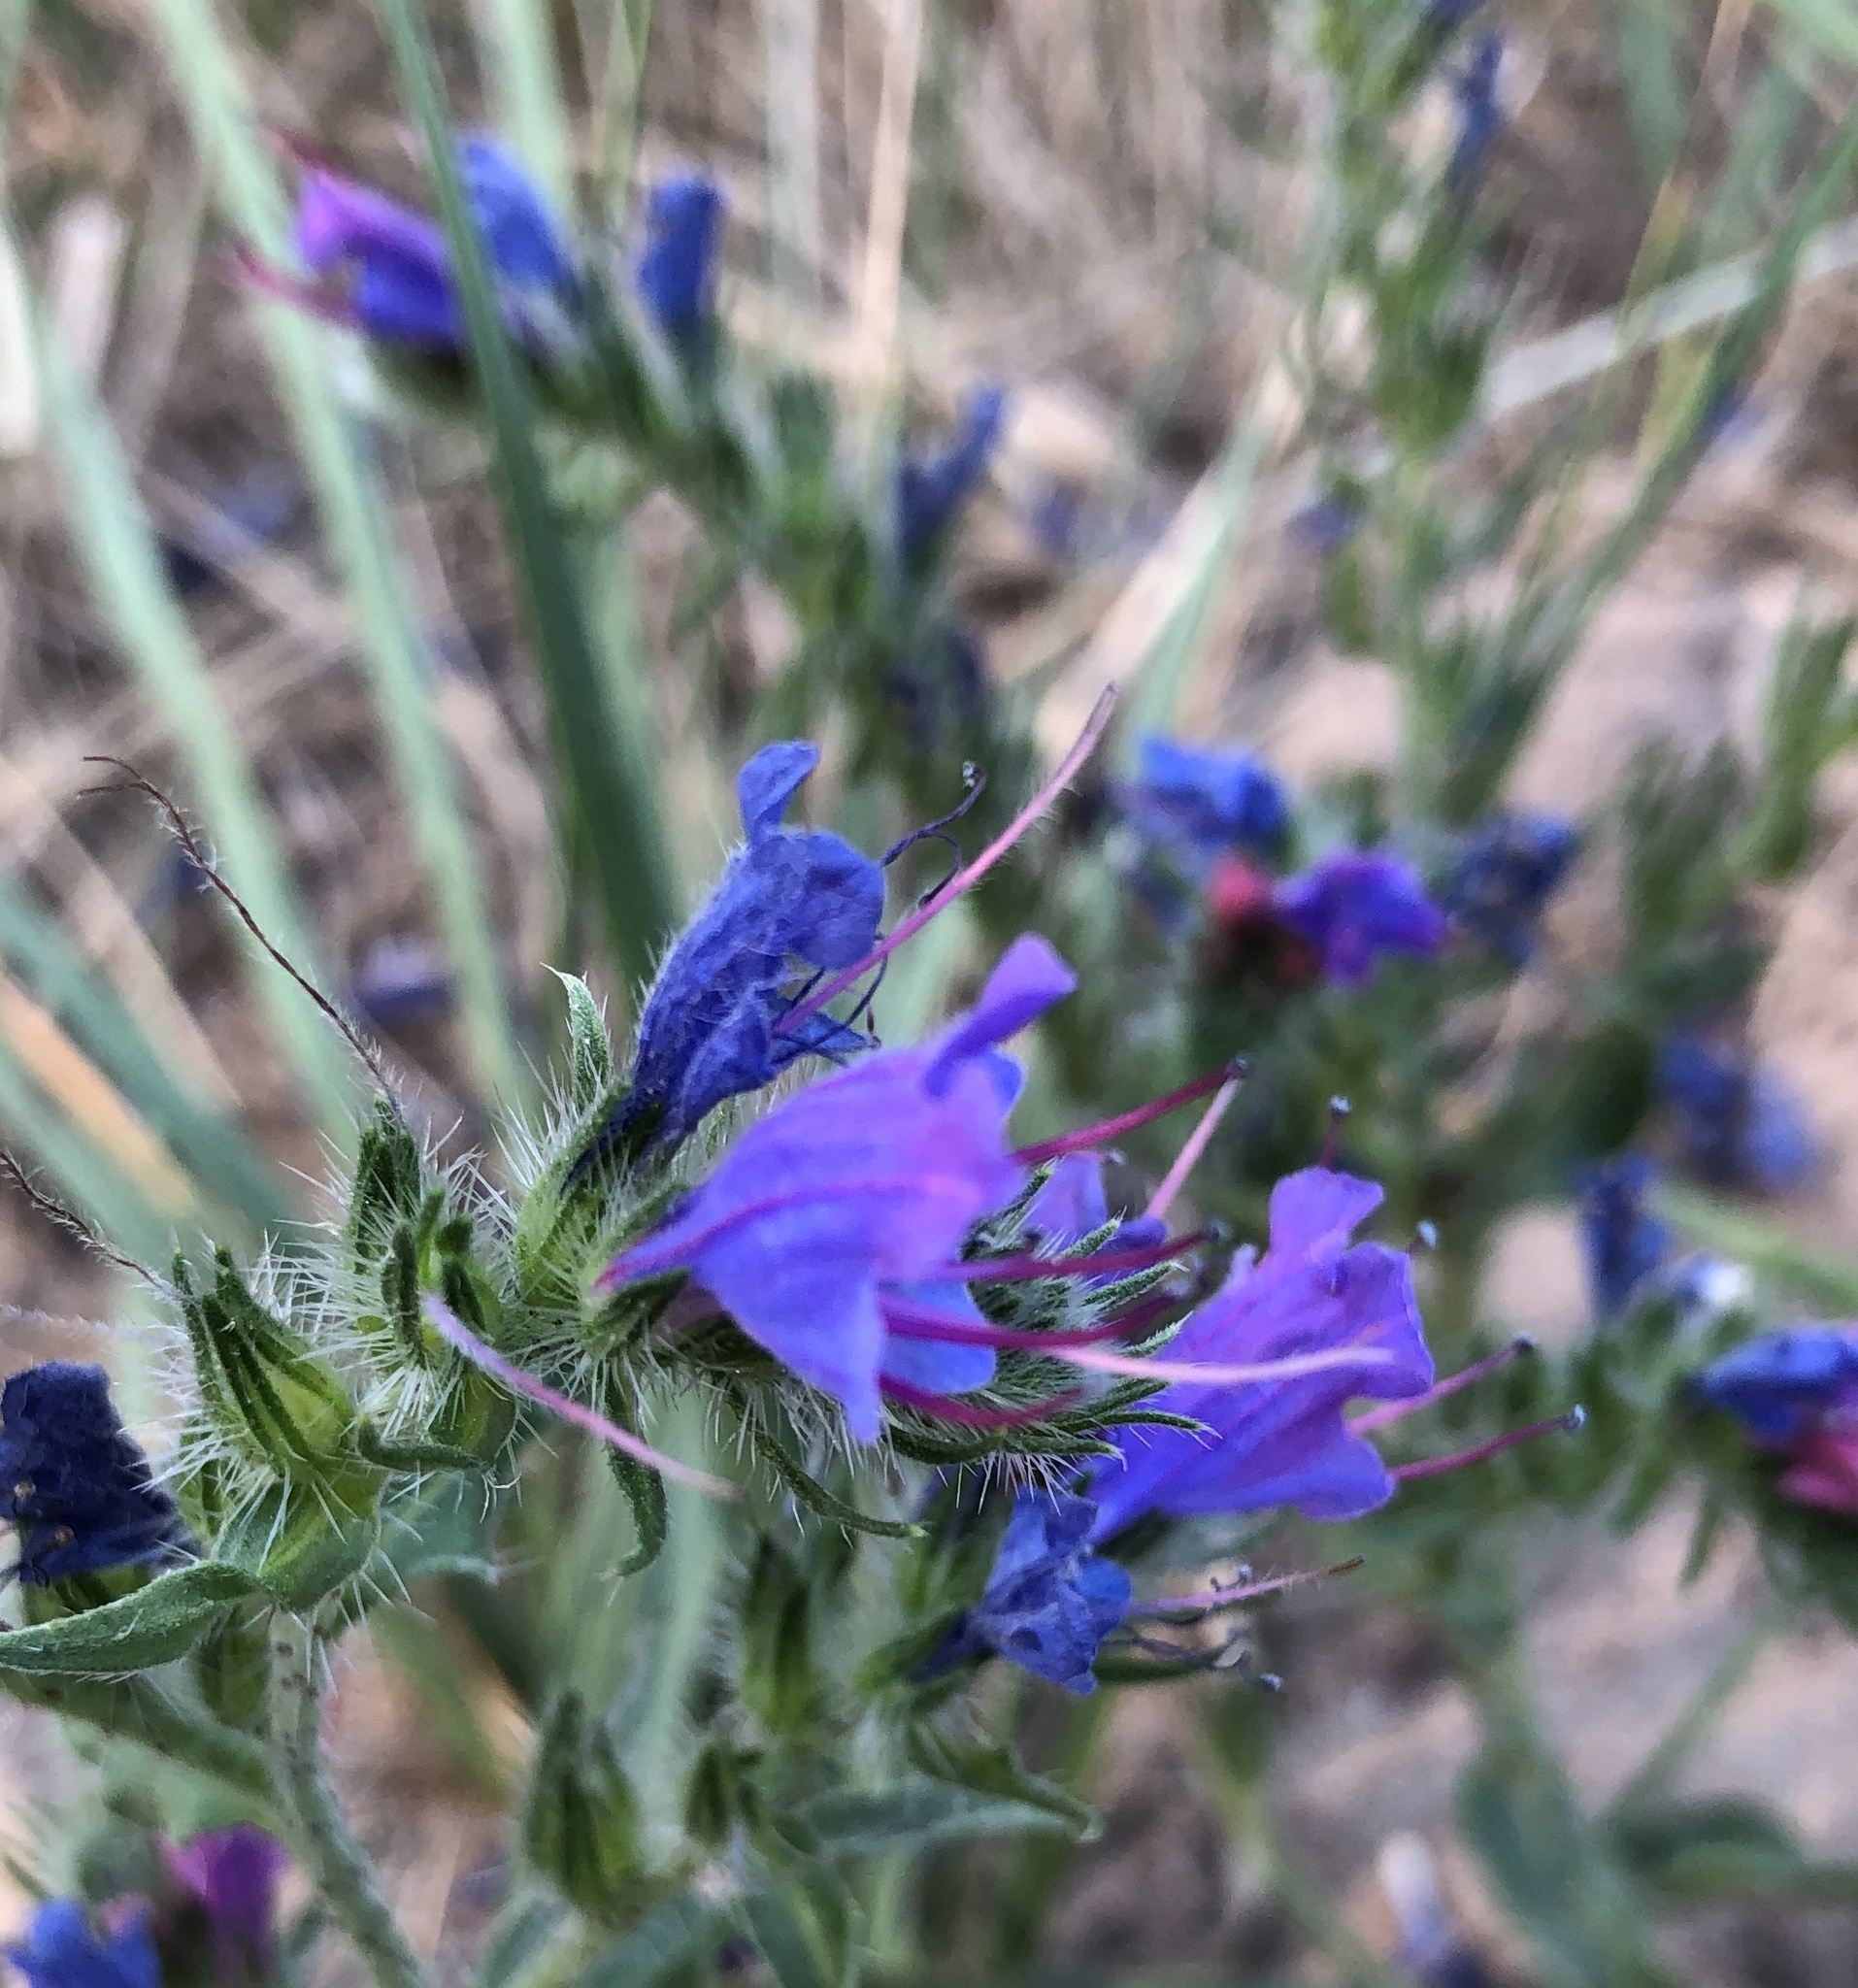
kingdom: Plantae
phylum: Tracheophyta
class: Magnoliopsida
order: Boraginales
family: Boraginaceae
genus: Echium
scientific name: Echium vulgare
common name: Common viper's bugloss
